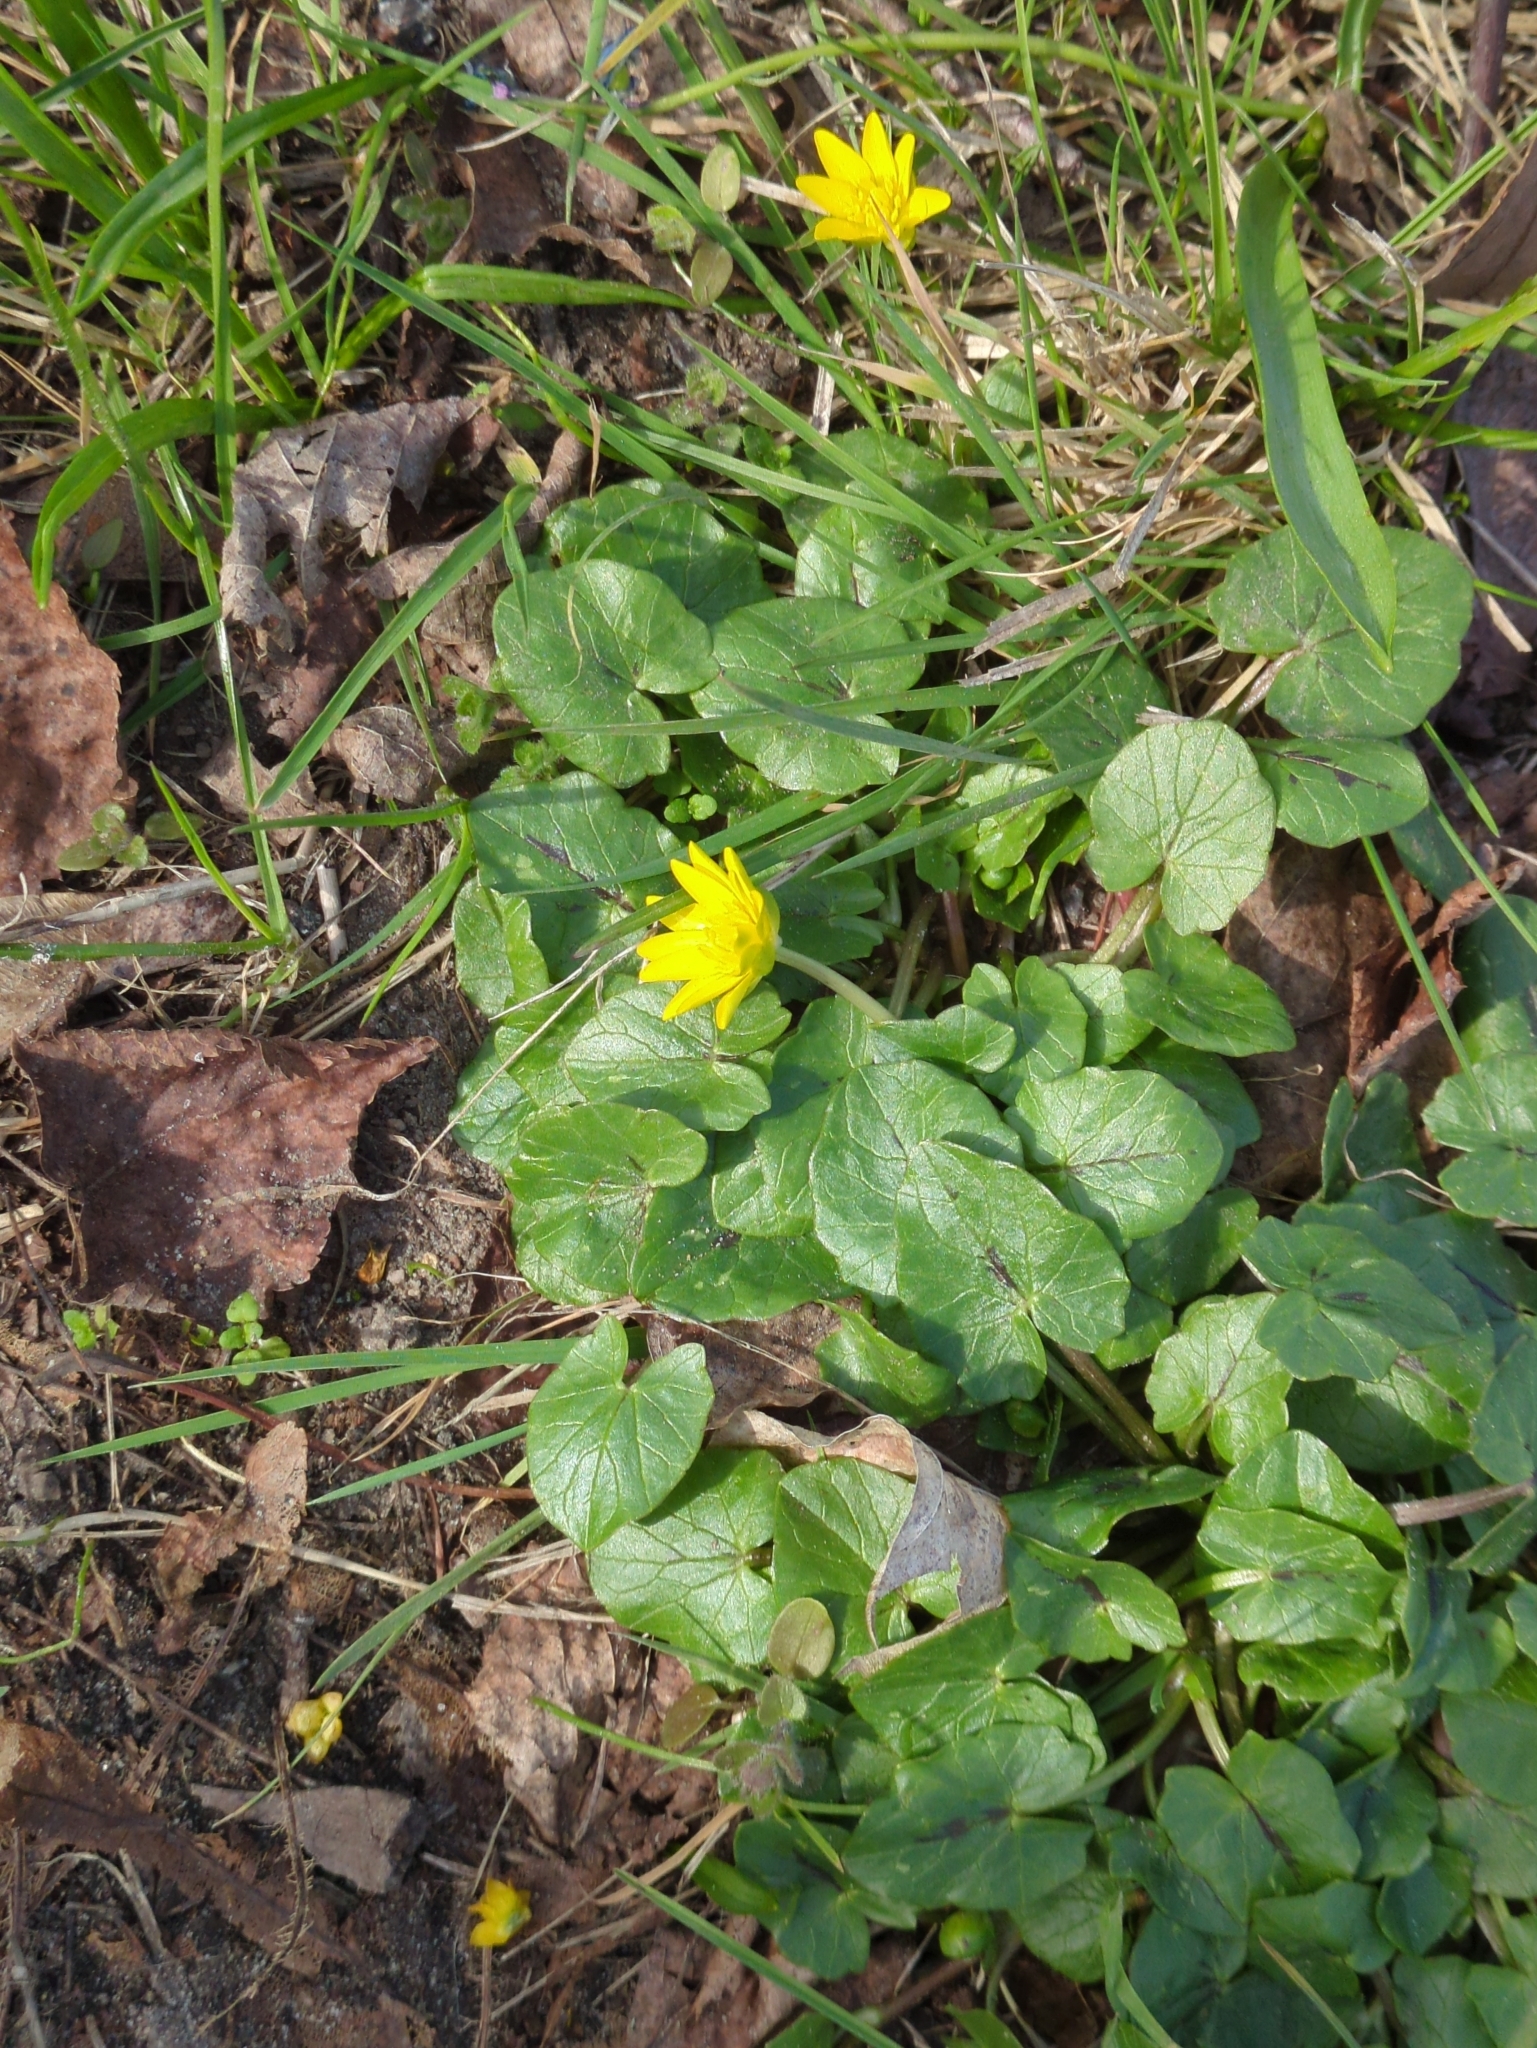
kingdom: Plantae
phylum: Tracheophyta
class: Magnoliopsida
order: Ranunculales
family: Ranunculaceae
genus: Ficaria
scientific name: Ficaria verna
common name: Lesser celandine
